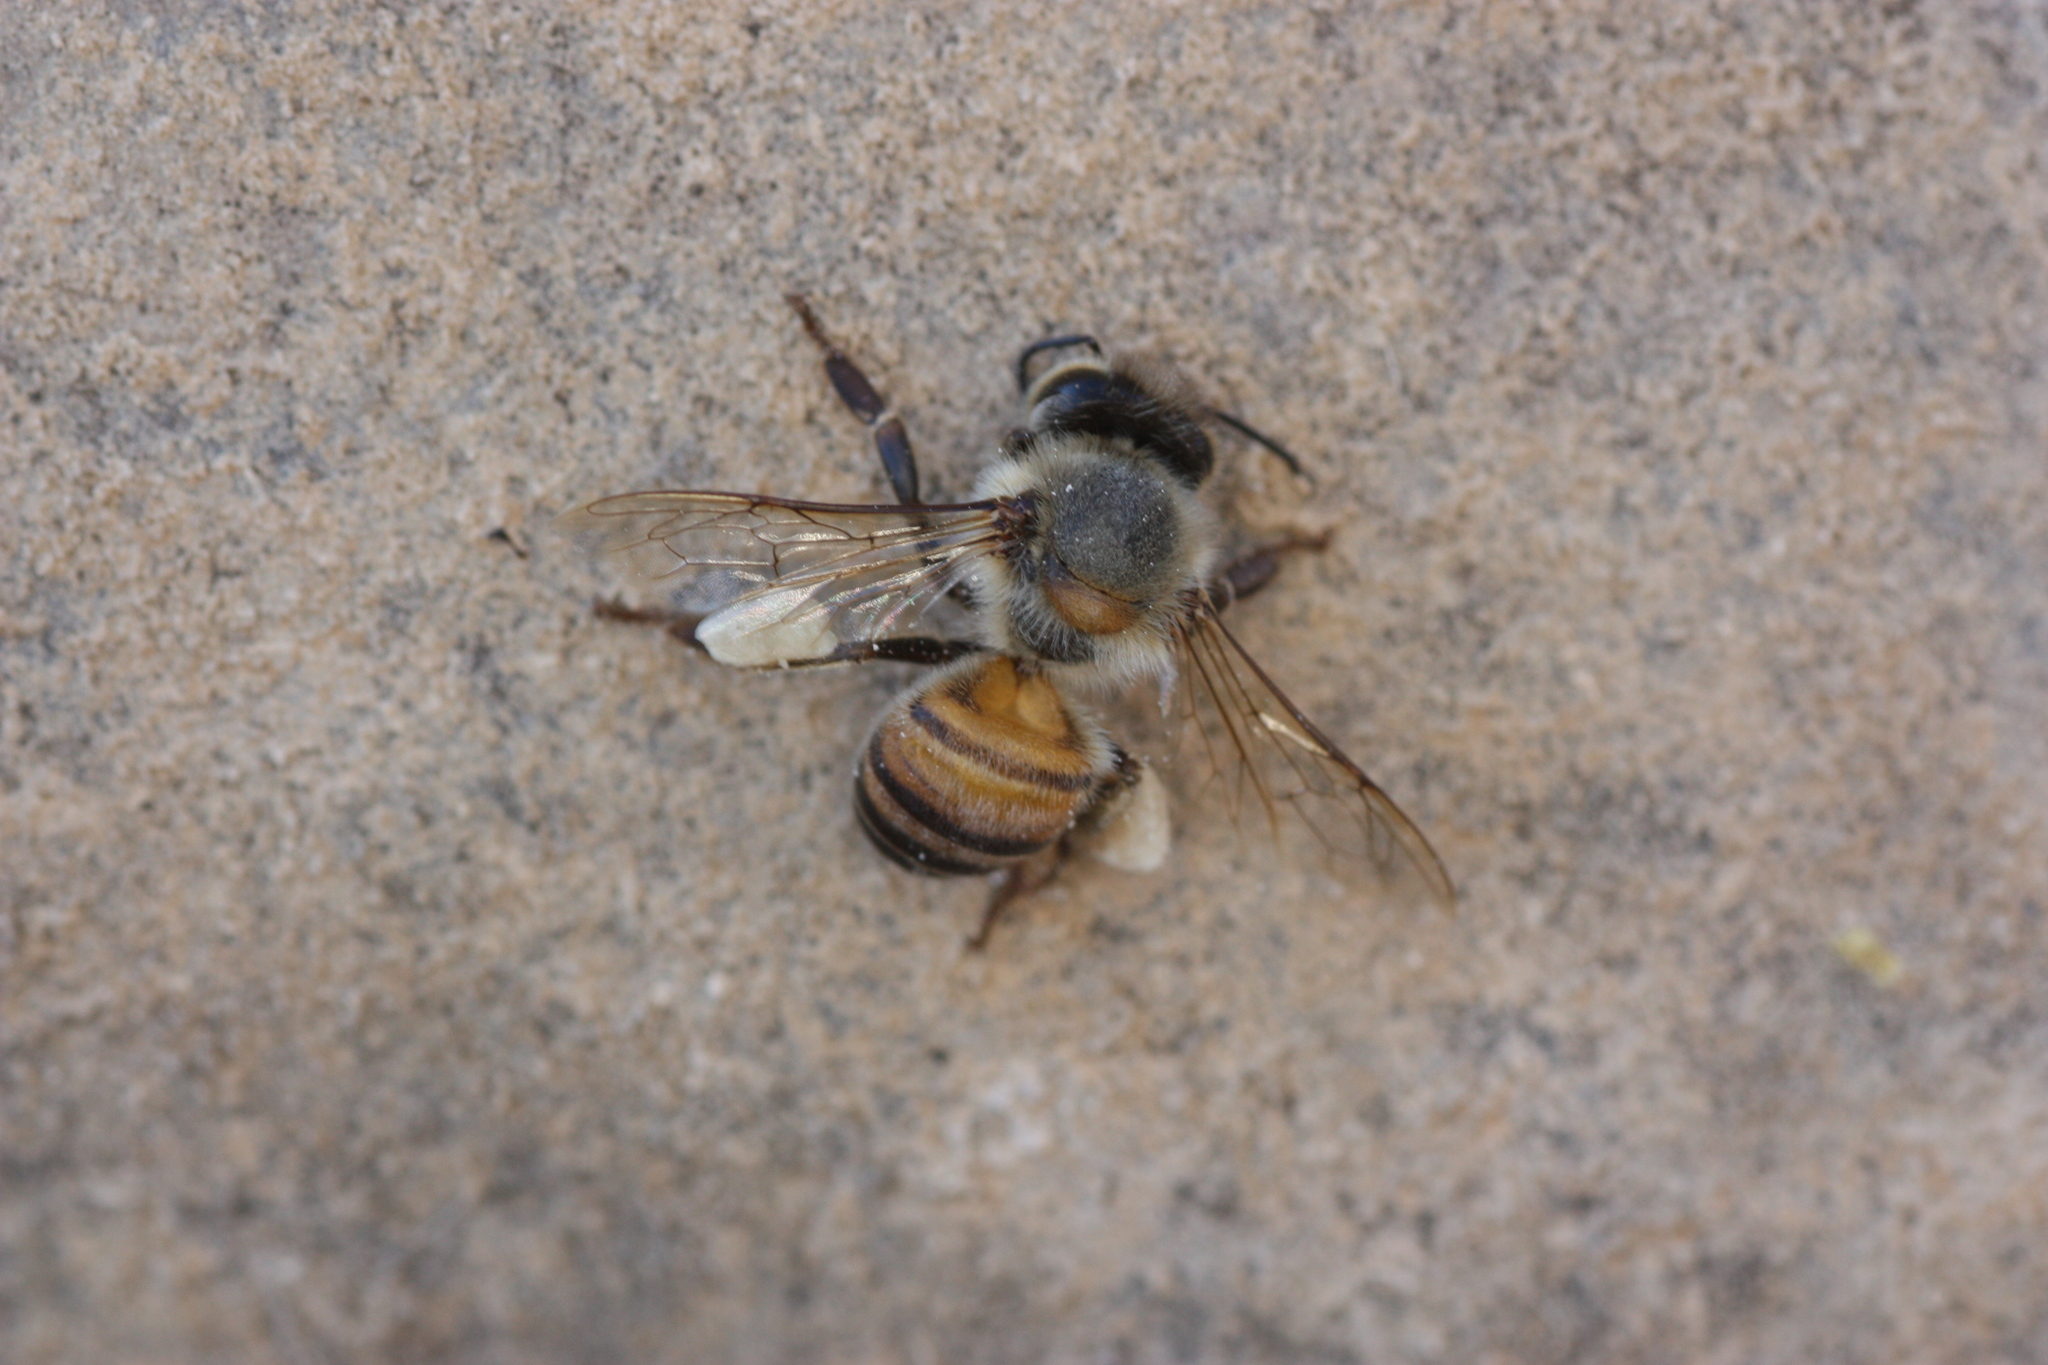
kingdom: Animalia
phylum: Arthropoda
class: Insecta
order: Hymenoptera
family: Apidae
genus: Apis
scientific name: Apis mellifera
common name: Honey bee
